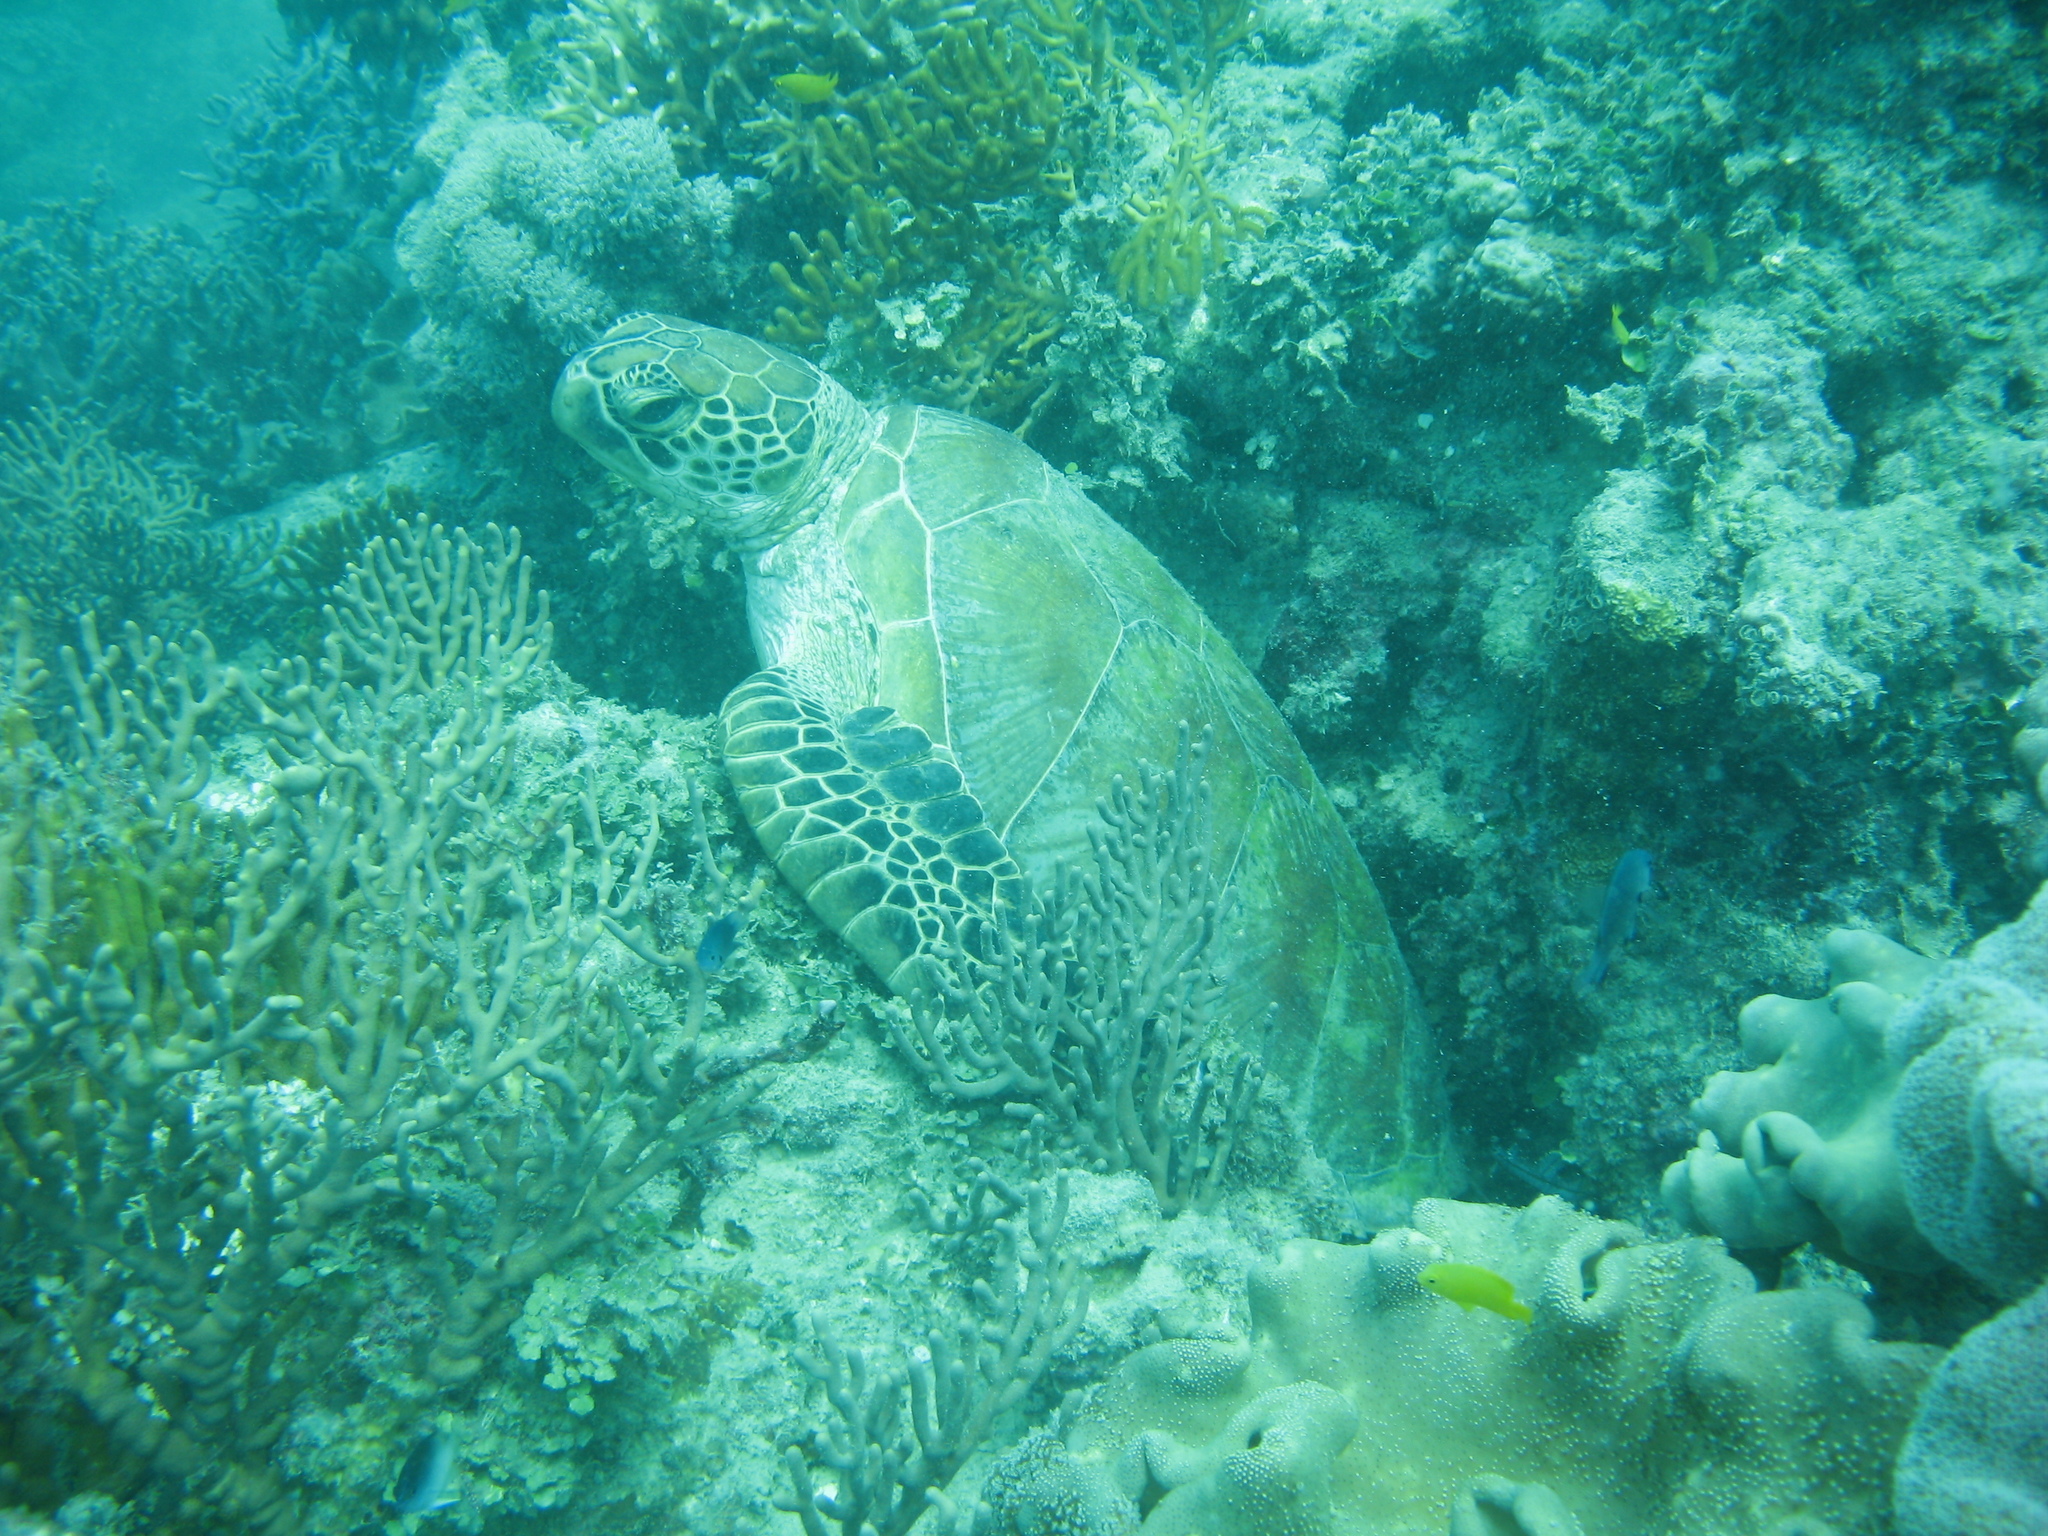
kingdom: Animalia
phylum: Chordata
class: Testudines
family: Cheloniidae
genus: Chelonia
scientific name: Chelonia mydas
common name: Green turtle
